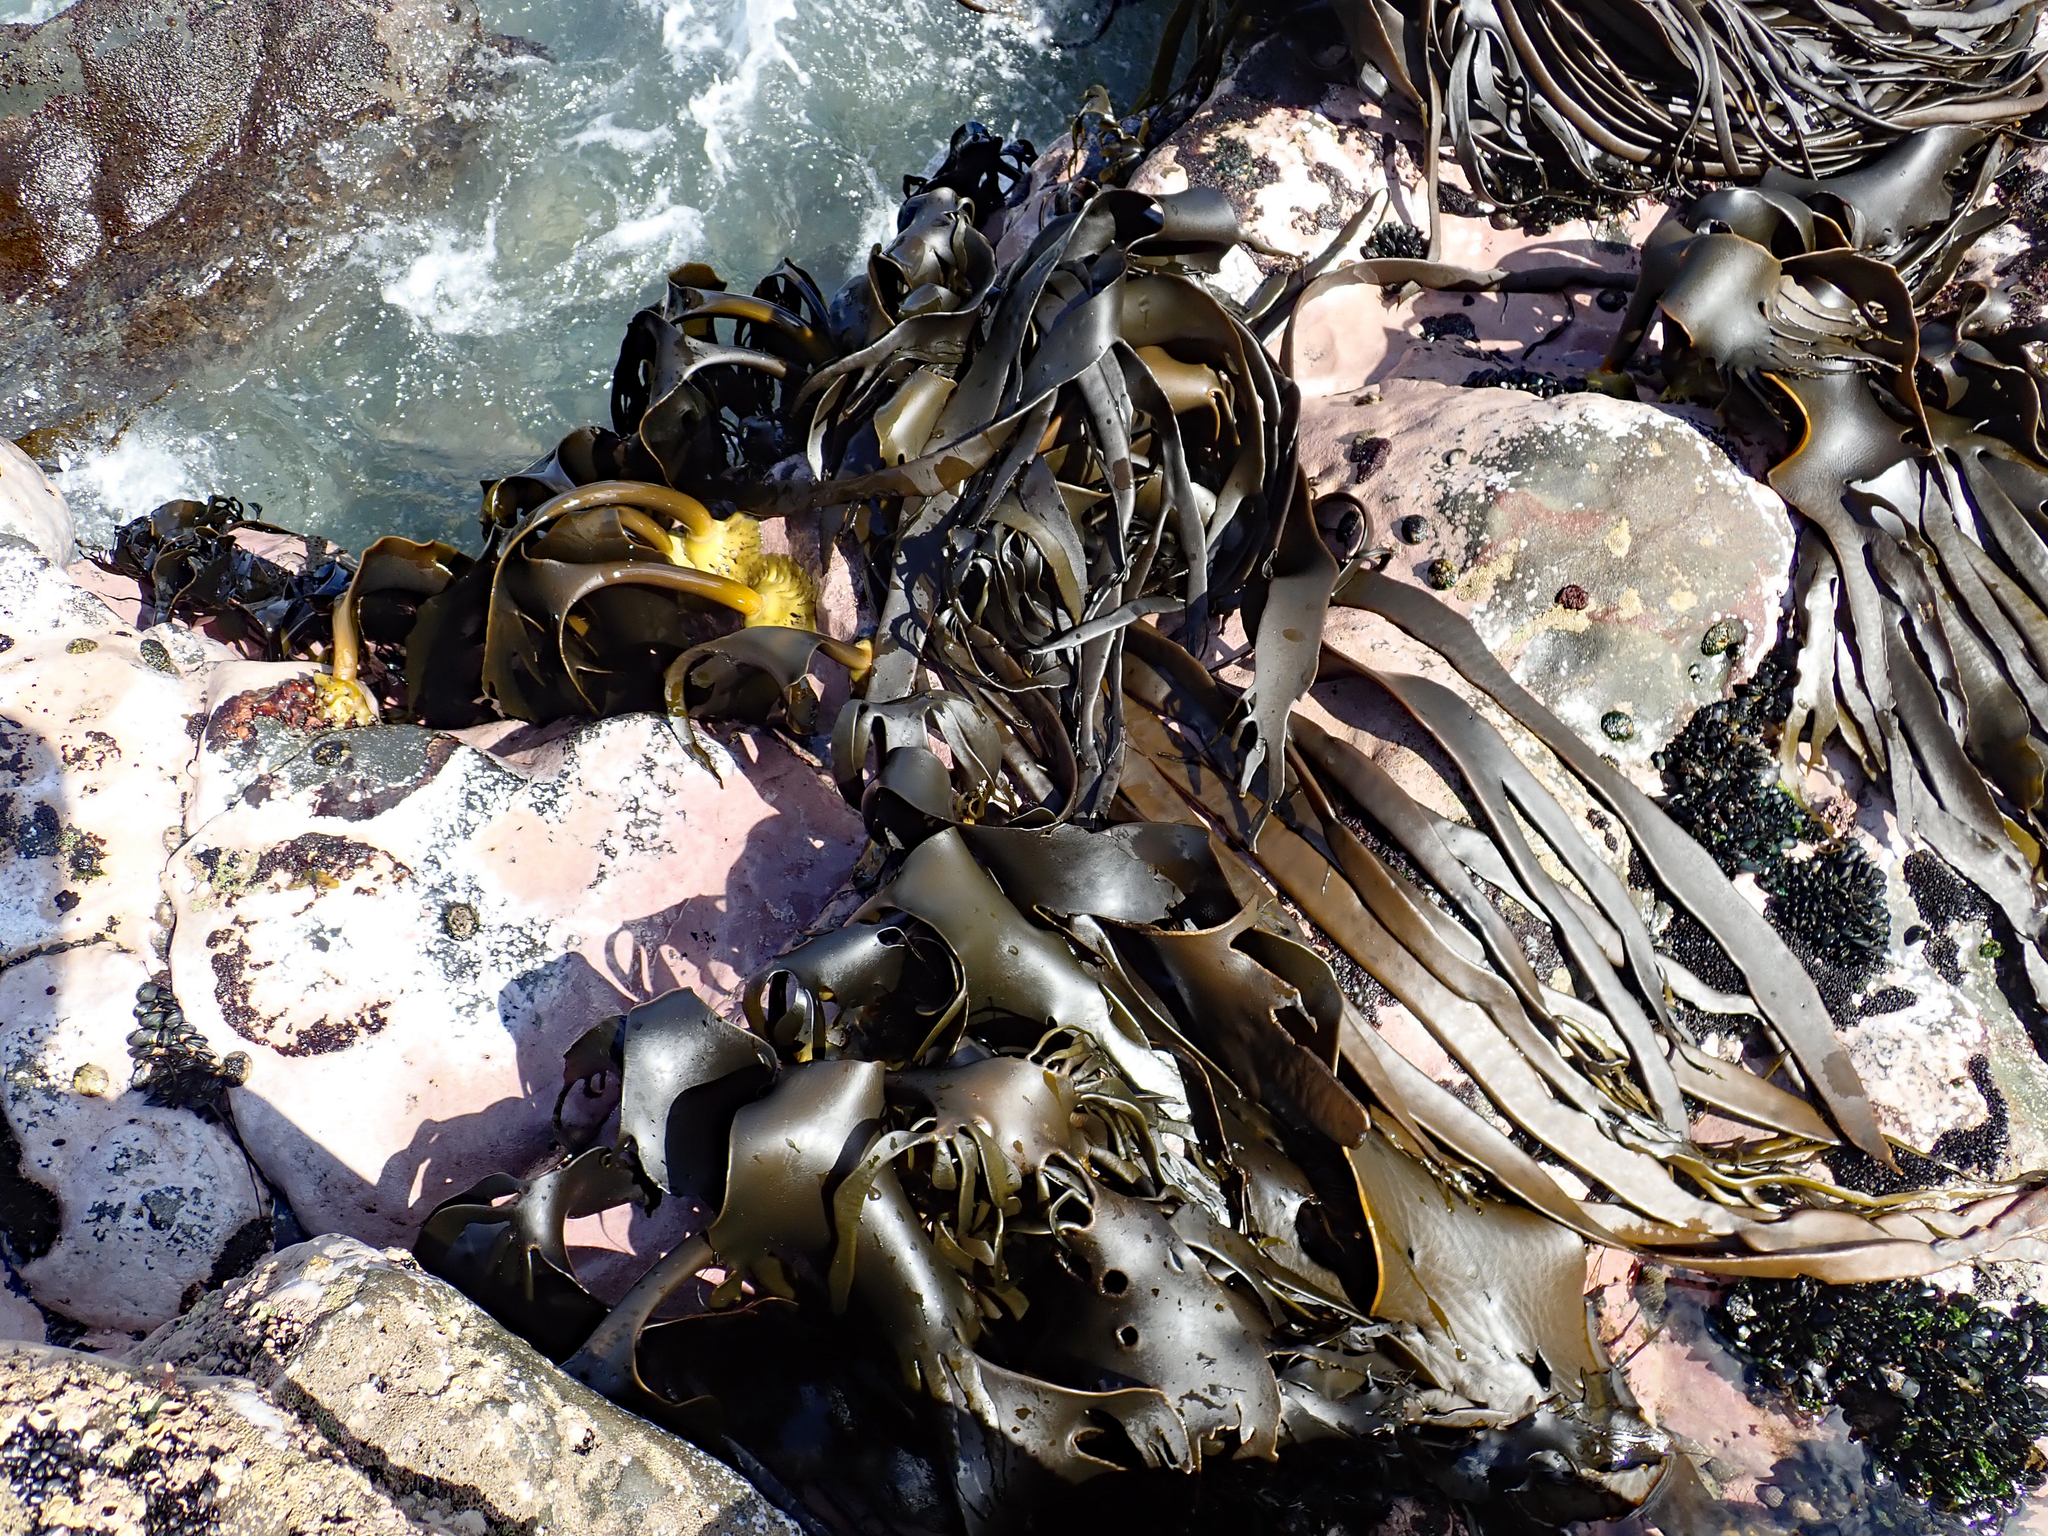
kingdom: Chromista
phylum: Ochrophyta
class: Phaeophyceae
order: Fucales
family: Durvillaeaceae
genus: Durvillaea
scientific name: Durvillaea antarctica
